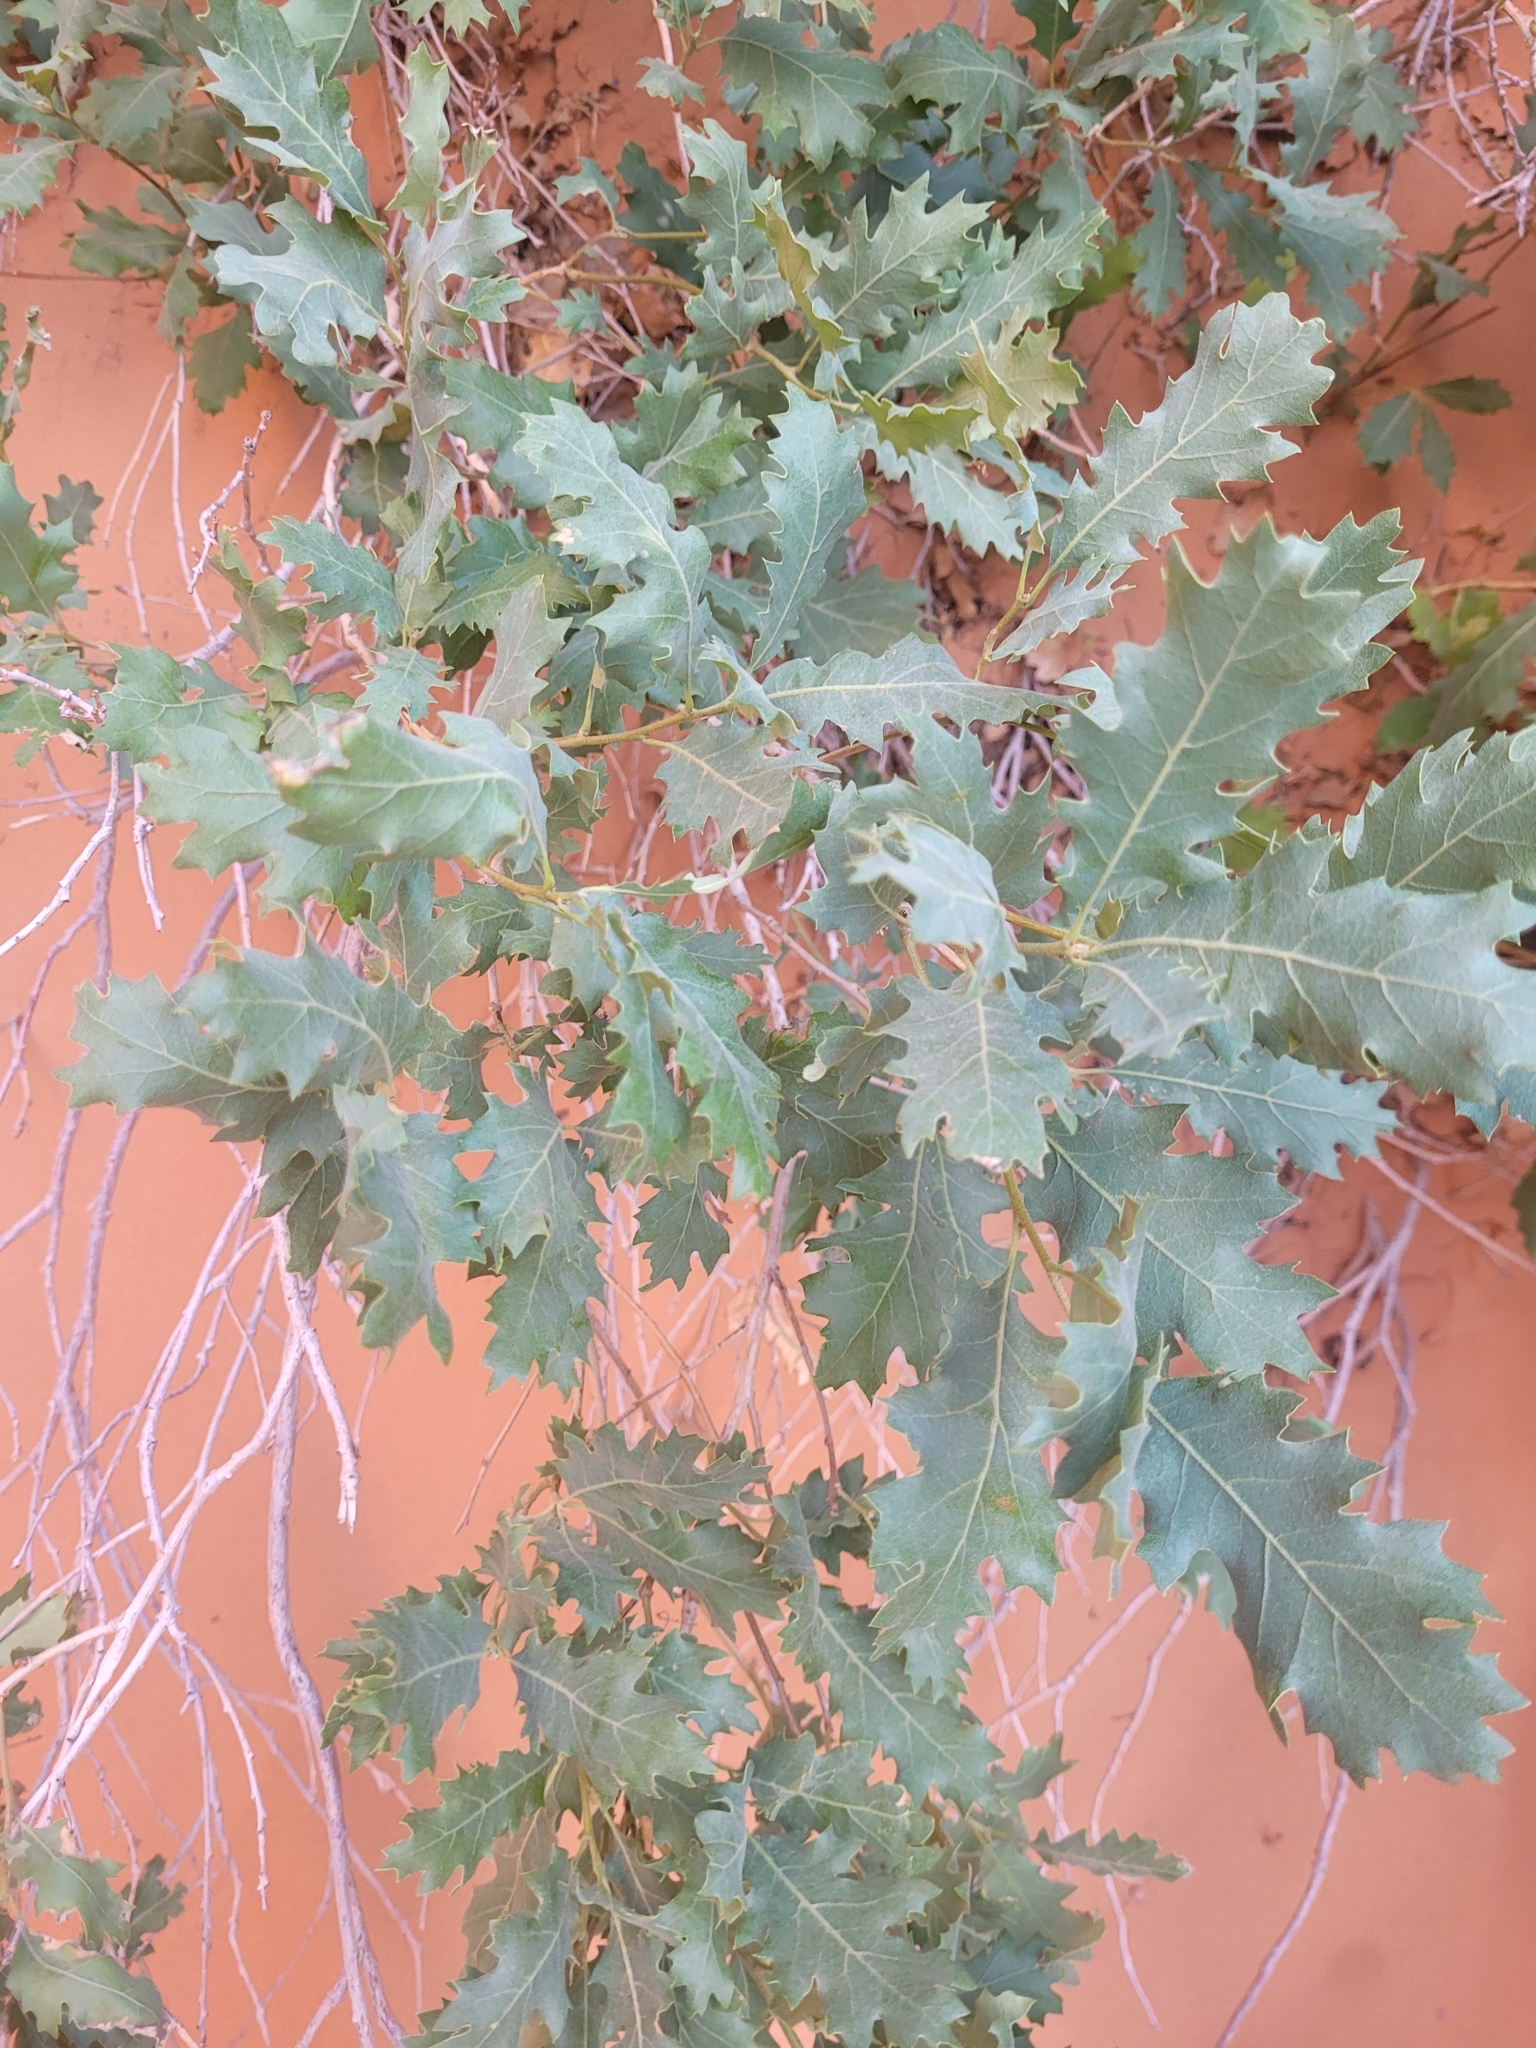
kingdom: Plantae
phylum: Tracheophyta
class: Magnoliopsida
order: Fagales
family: Fagaceae
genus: Quercus
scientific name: Quercus welshii
